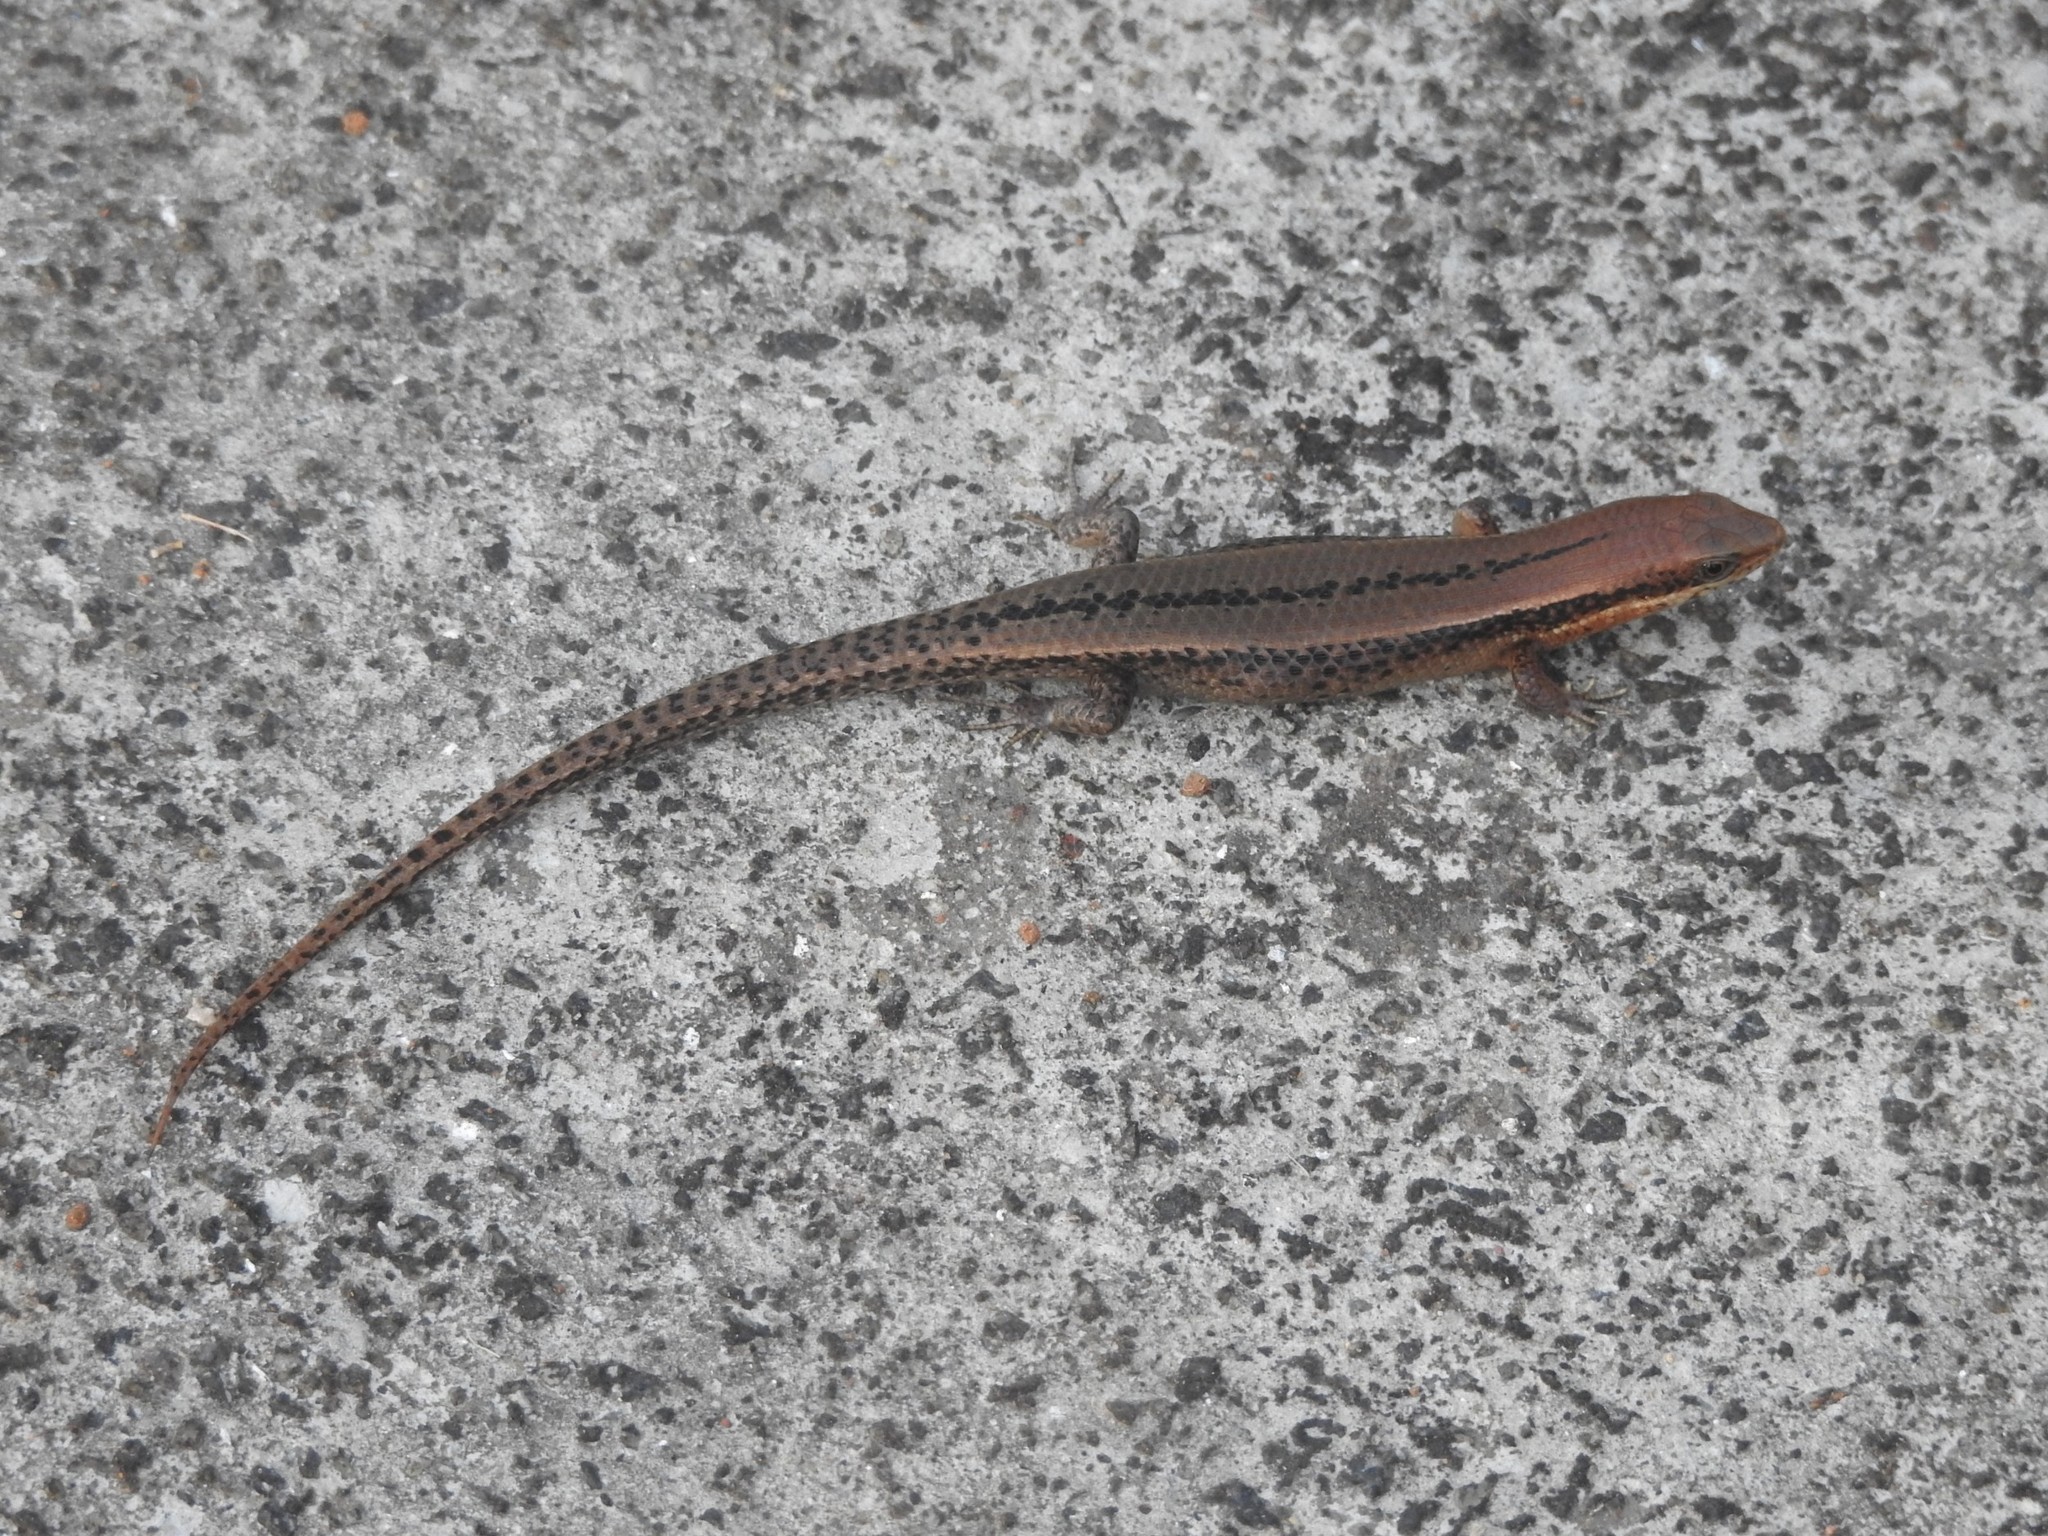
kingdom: Animalia
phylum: Chordata
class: Squamata
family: Scincidae
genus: Eutropis
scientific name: Eutropis clivicola
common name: Inger's mabuya
